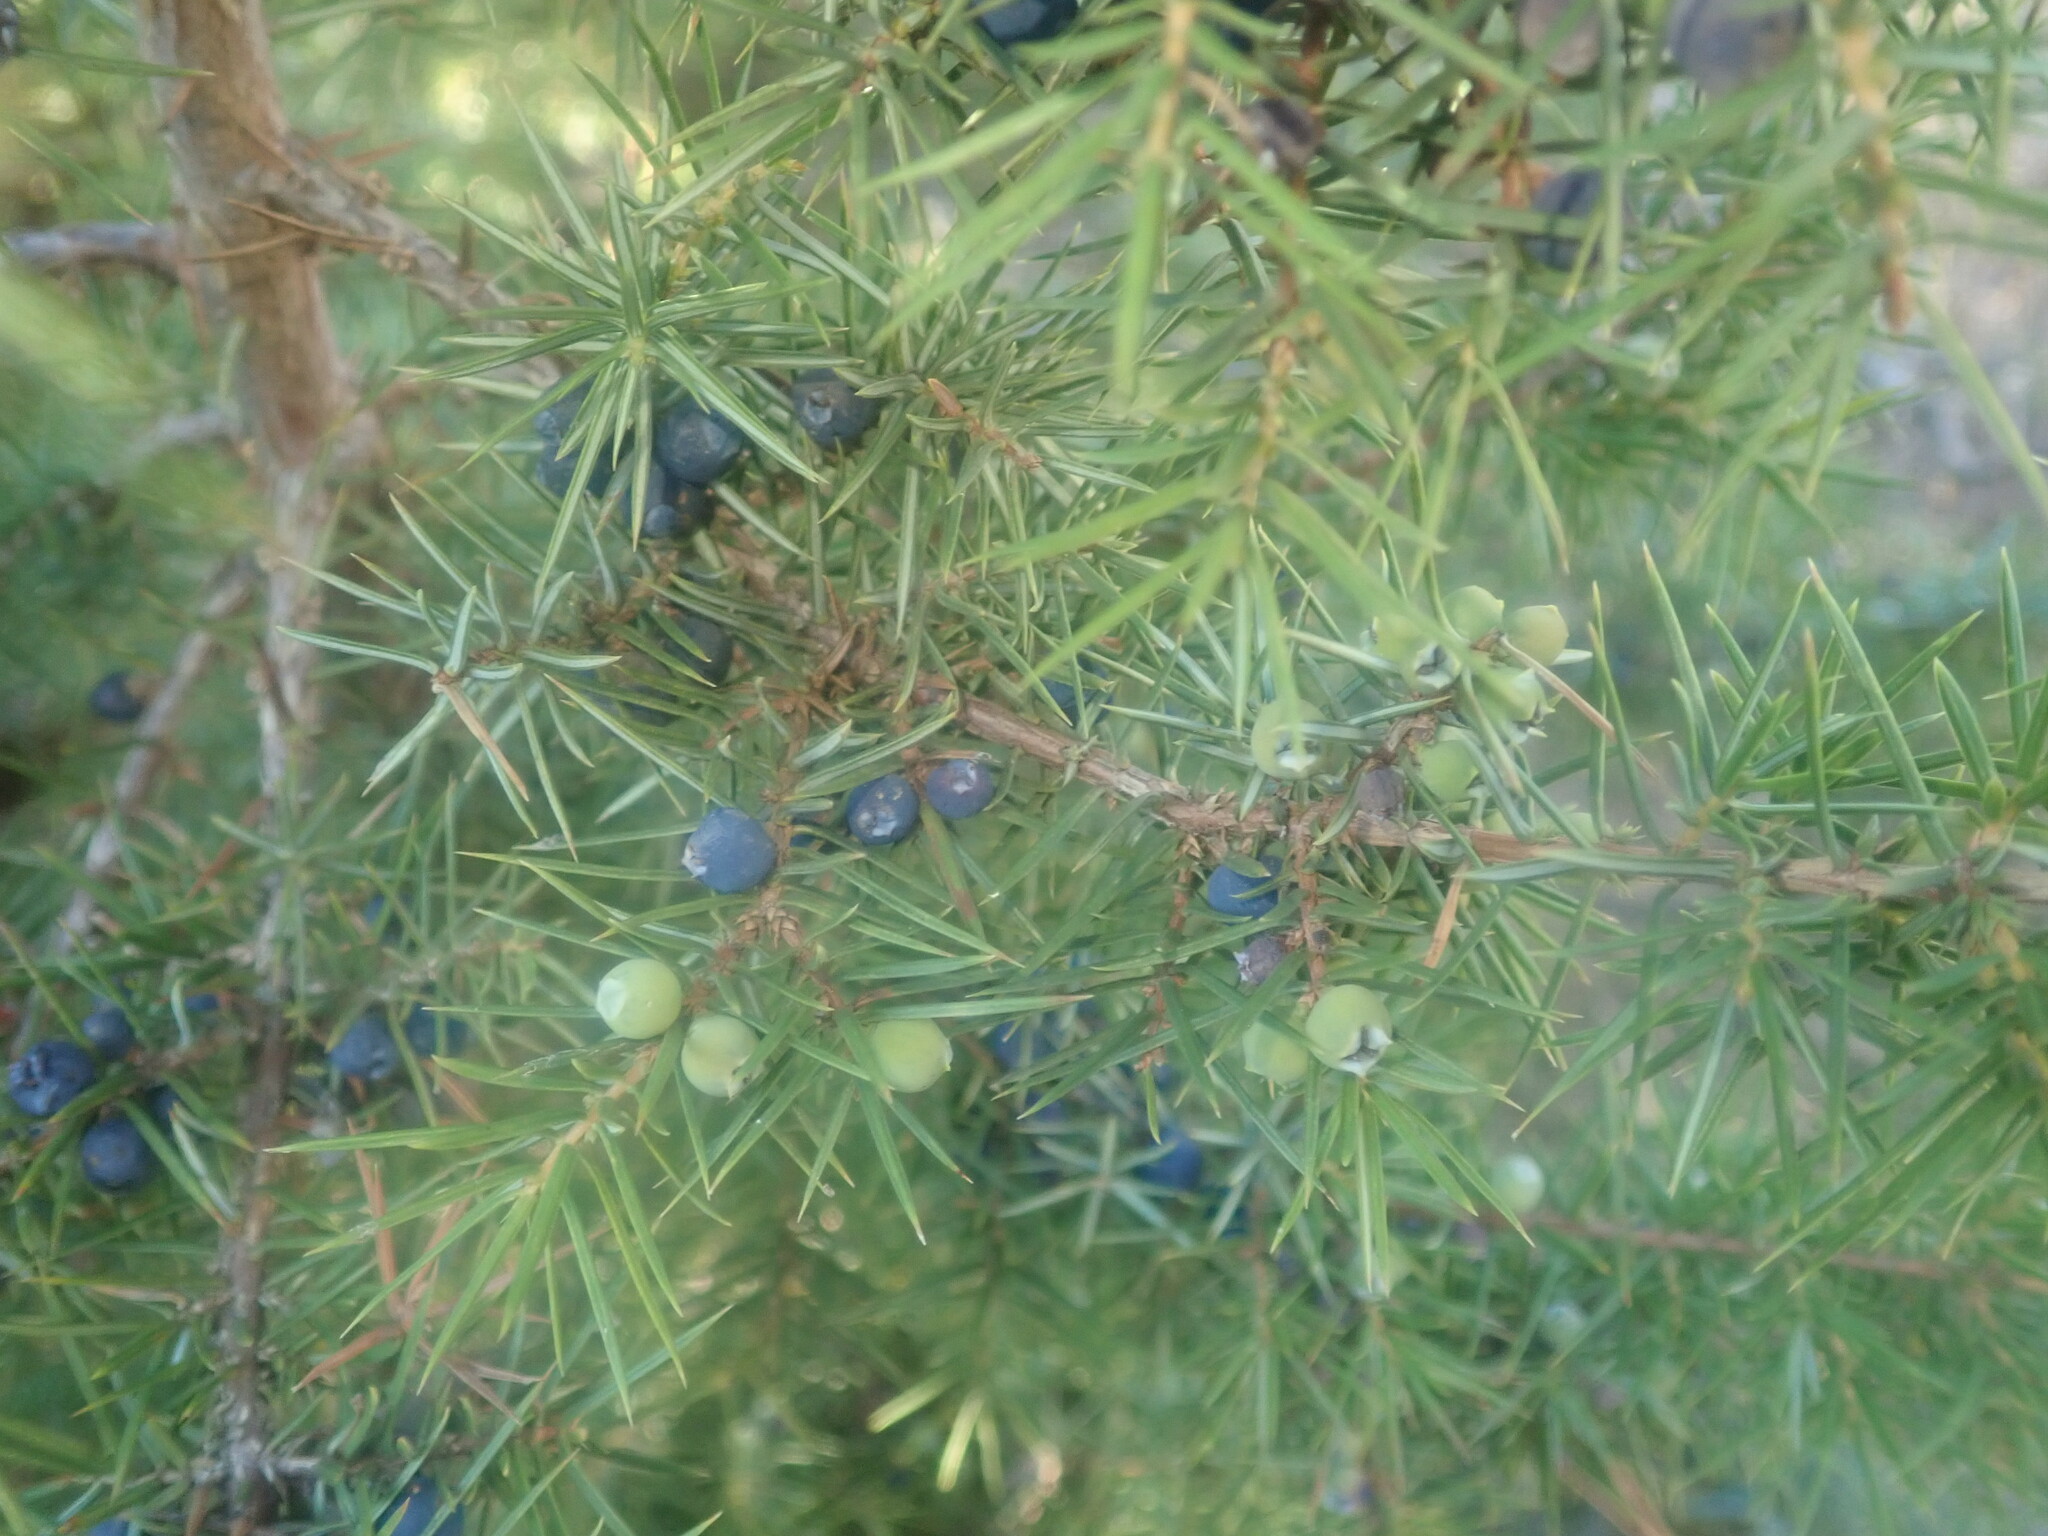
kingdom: Plantae
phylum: Tracheophyta
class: Pinopsida
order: Pinales
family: Cupressaceae
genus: Juniperus
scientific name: Juniperus communis
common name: Common juniper
